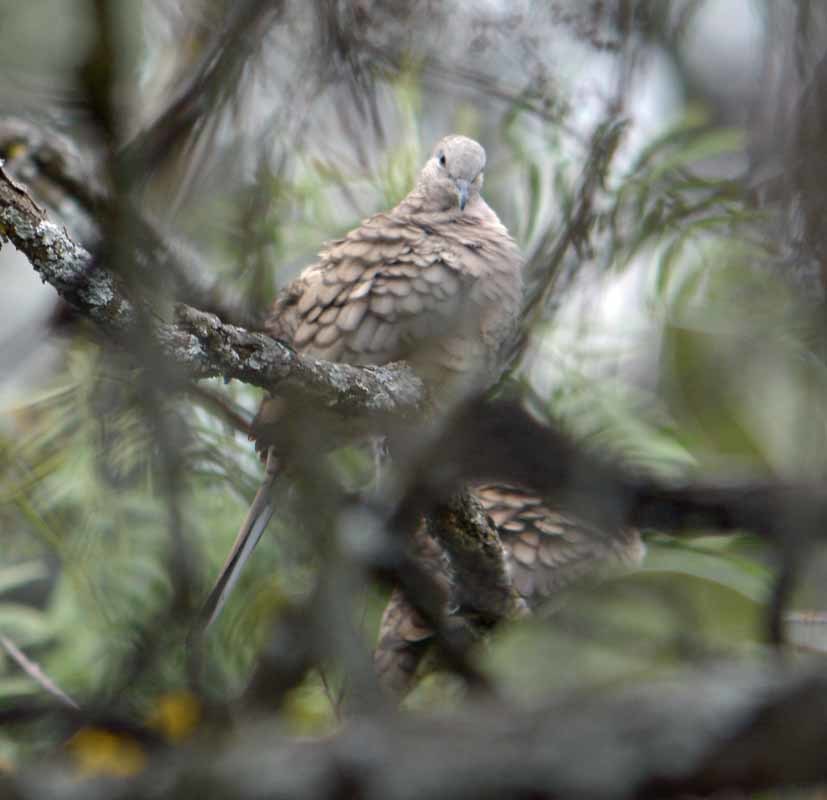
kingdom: Animalia
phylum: Chordata
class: Aves
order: Columbiformes
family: Columbidae
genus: Columbina
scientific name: Columbina inca
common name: Inca dove
